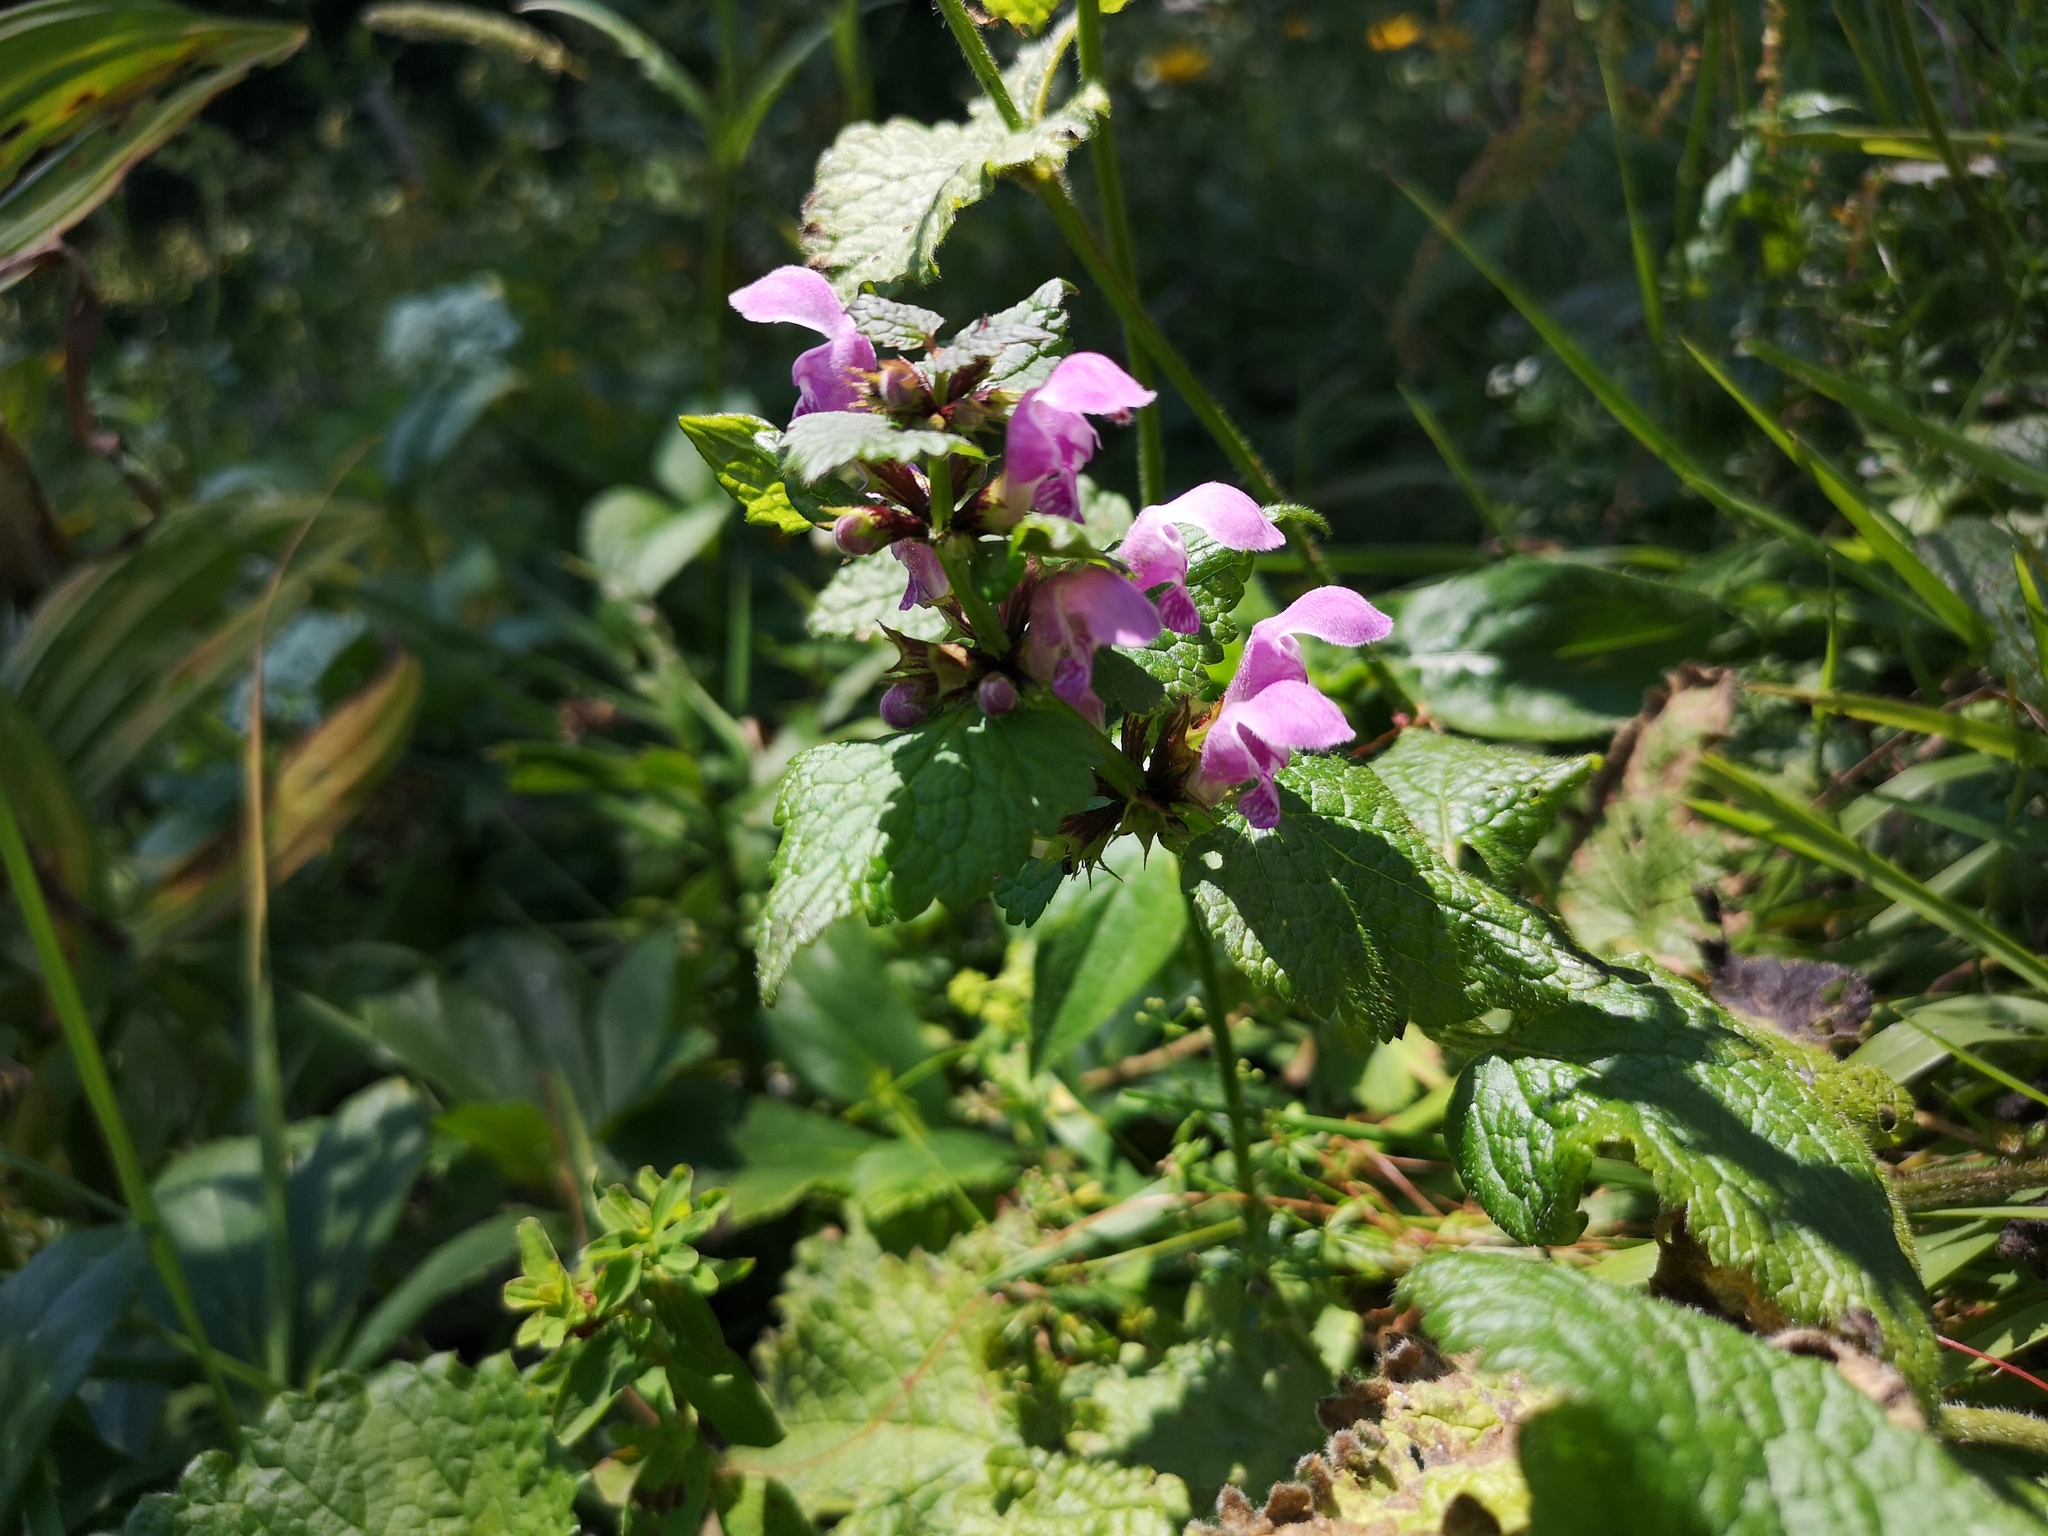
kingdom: Plantae
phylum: Tracheophyta
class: Magnoliopsida
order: Lamiales
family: Lamiaceae
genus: Lamium
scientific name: Lamium maculatum
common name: Spotted dead-nettle
